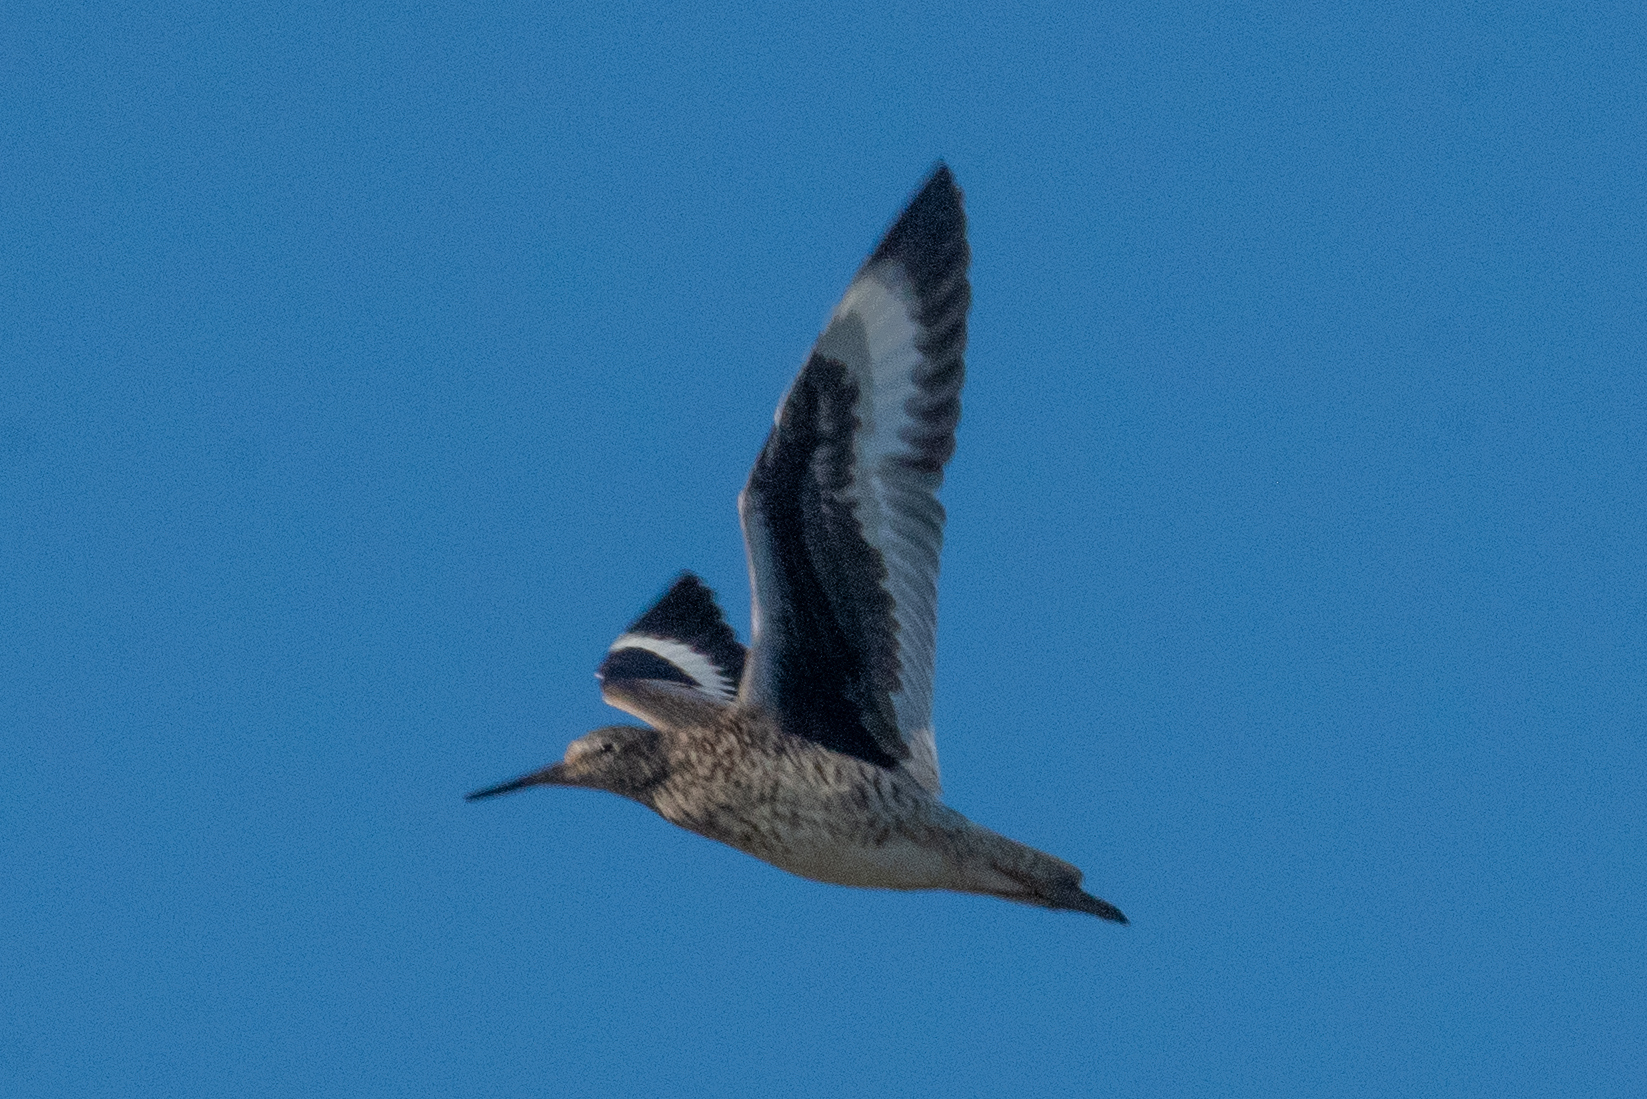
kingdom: Animalia
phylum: Chordata
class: Aves
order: Charadriiformes
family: Scolopacidae
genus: Tringa
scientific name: Tringa semipalmata
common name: Willet
